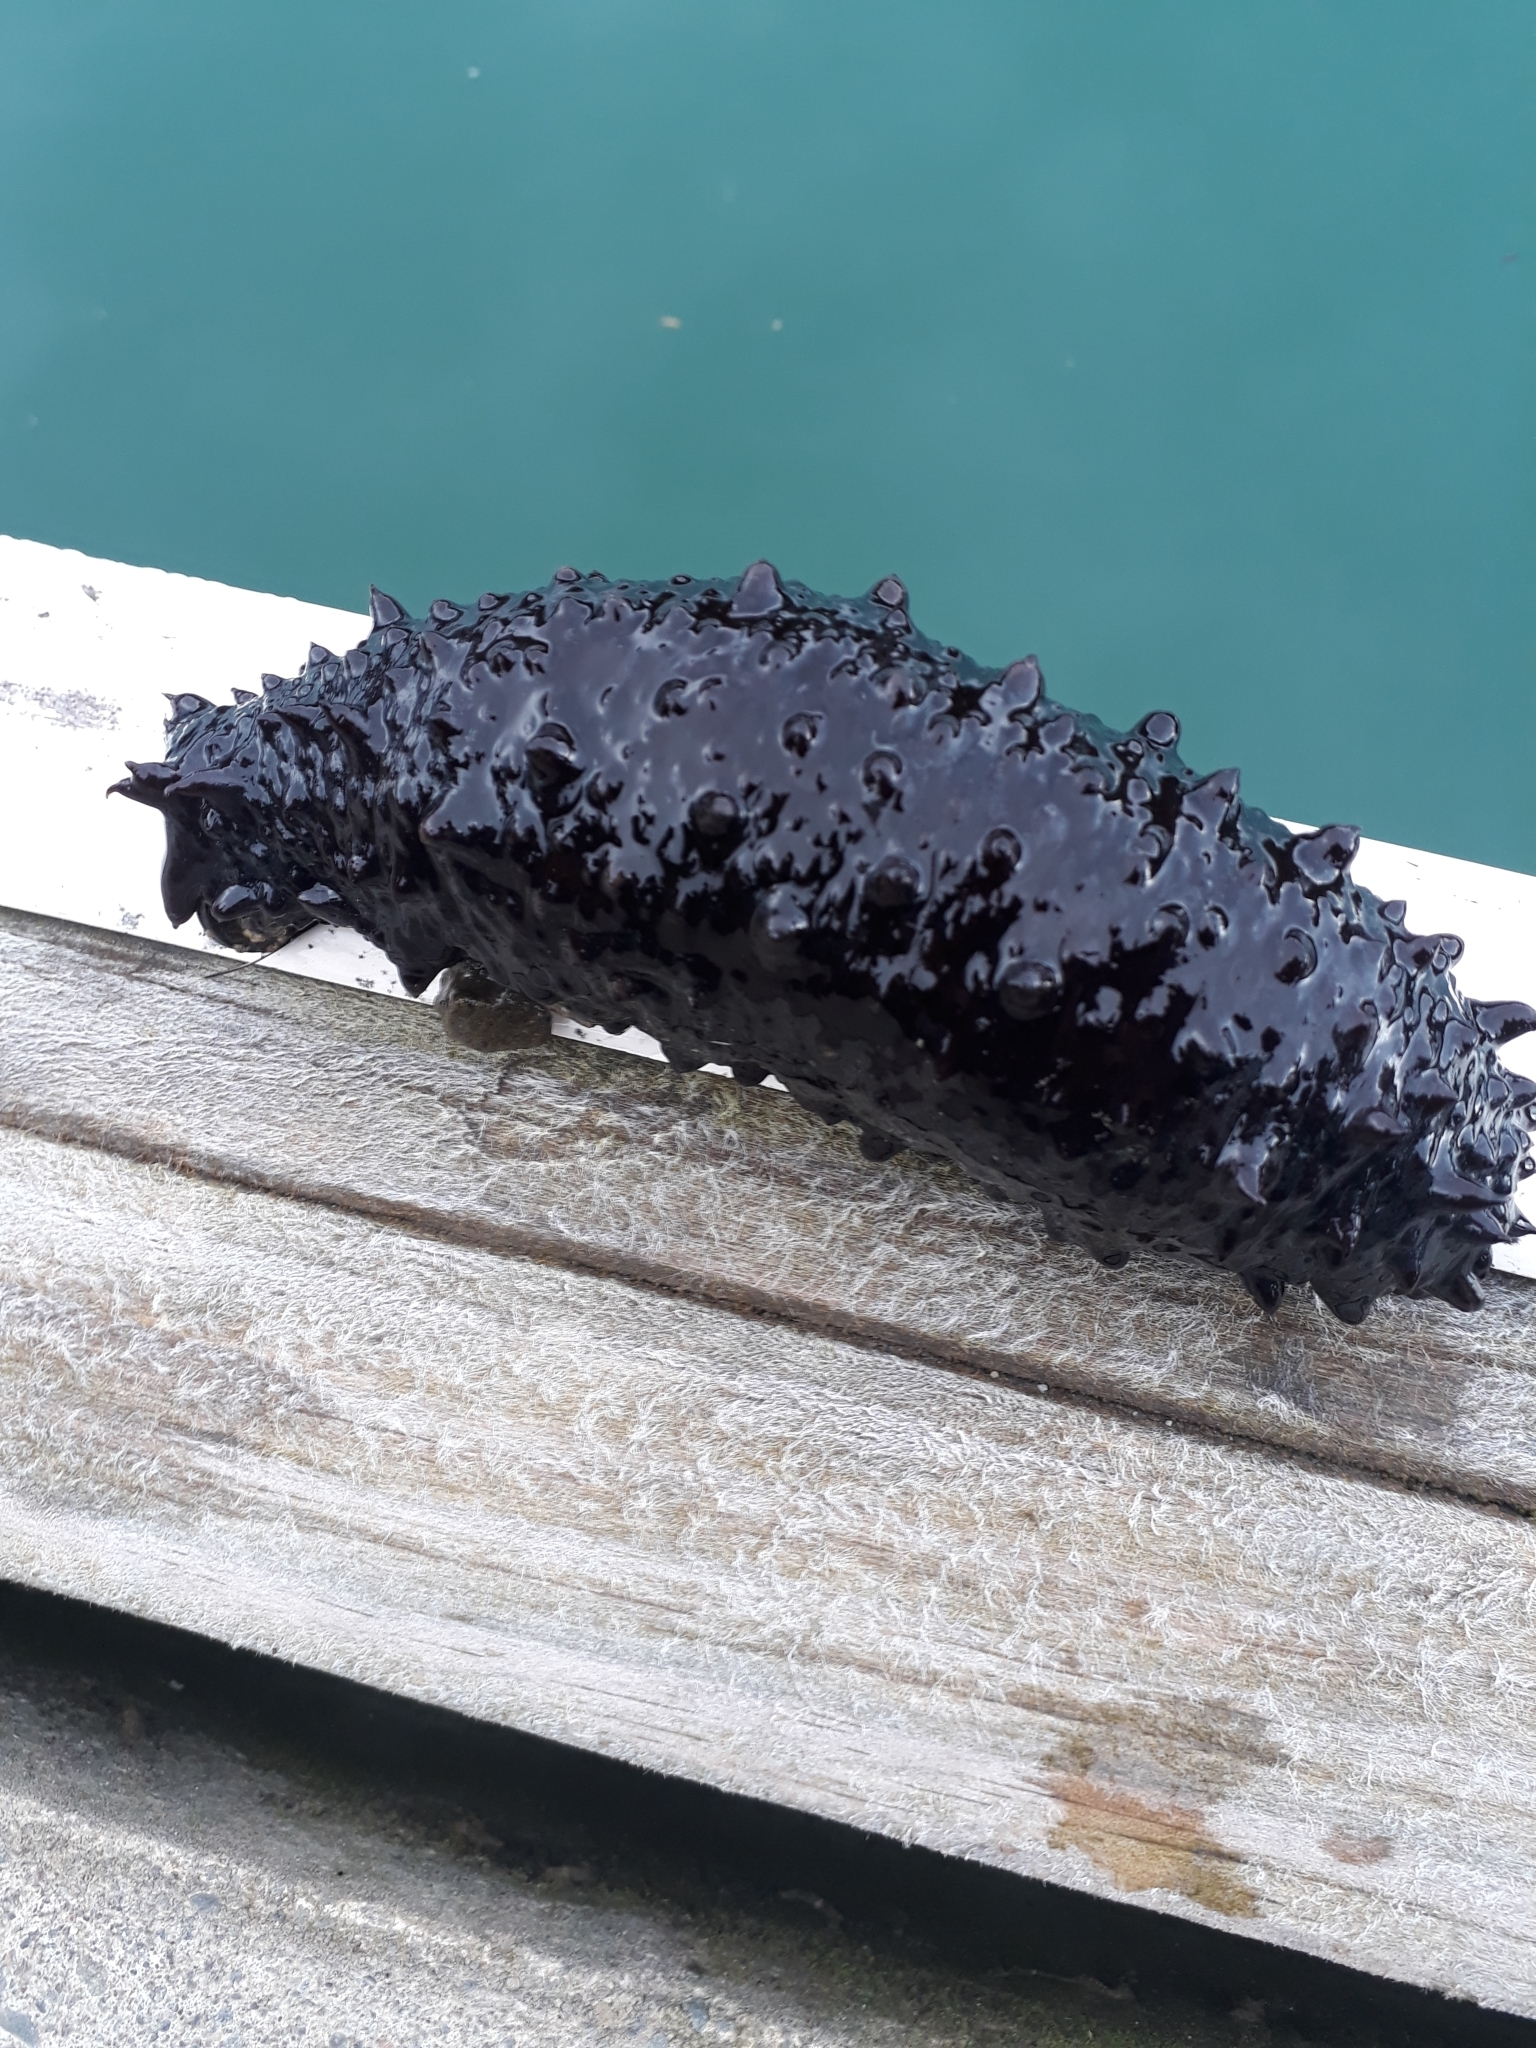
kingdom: Animalia
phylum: Echinodermata
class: Holothuroidea
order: Synallactida
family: Stichopodidae
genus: Australostichopus
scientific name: Australostichopus mollis
